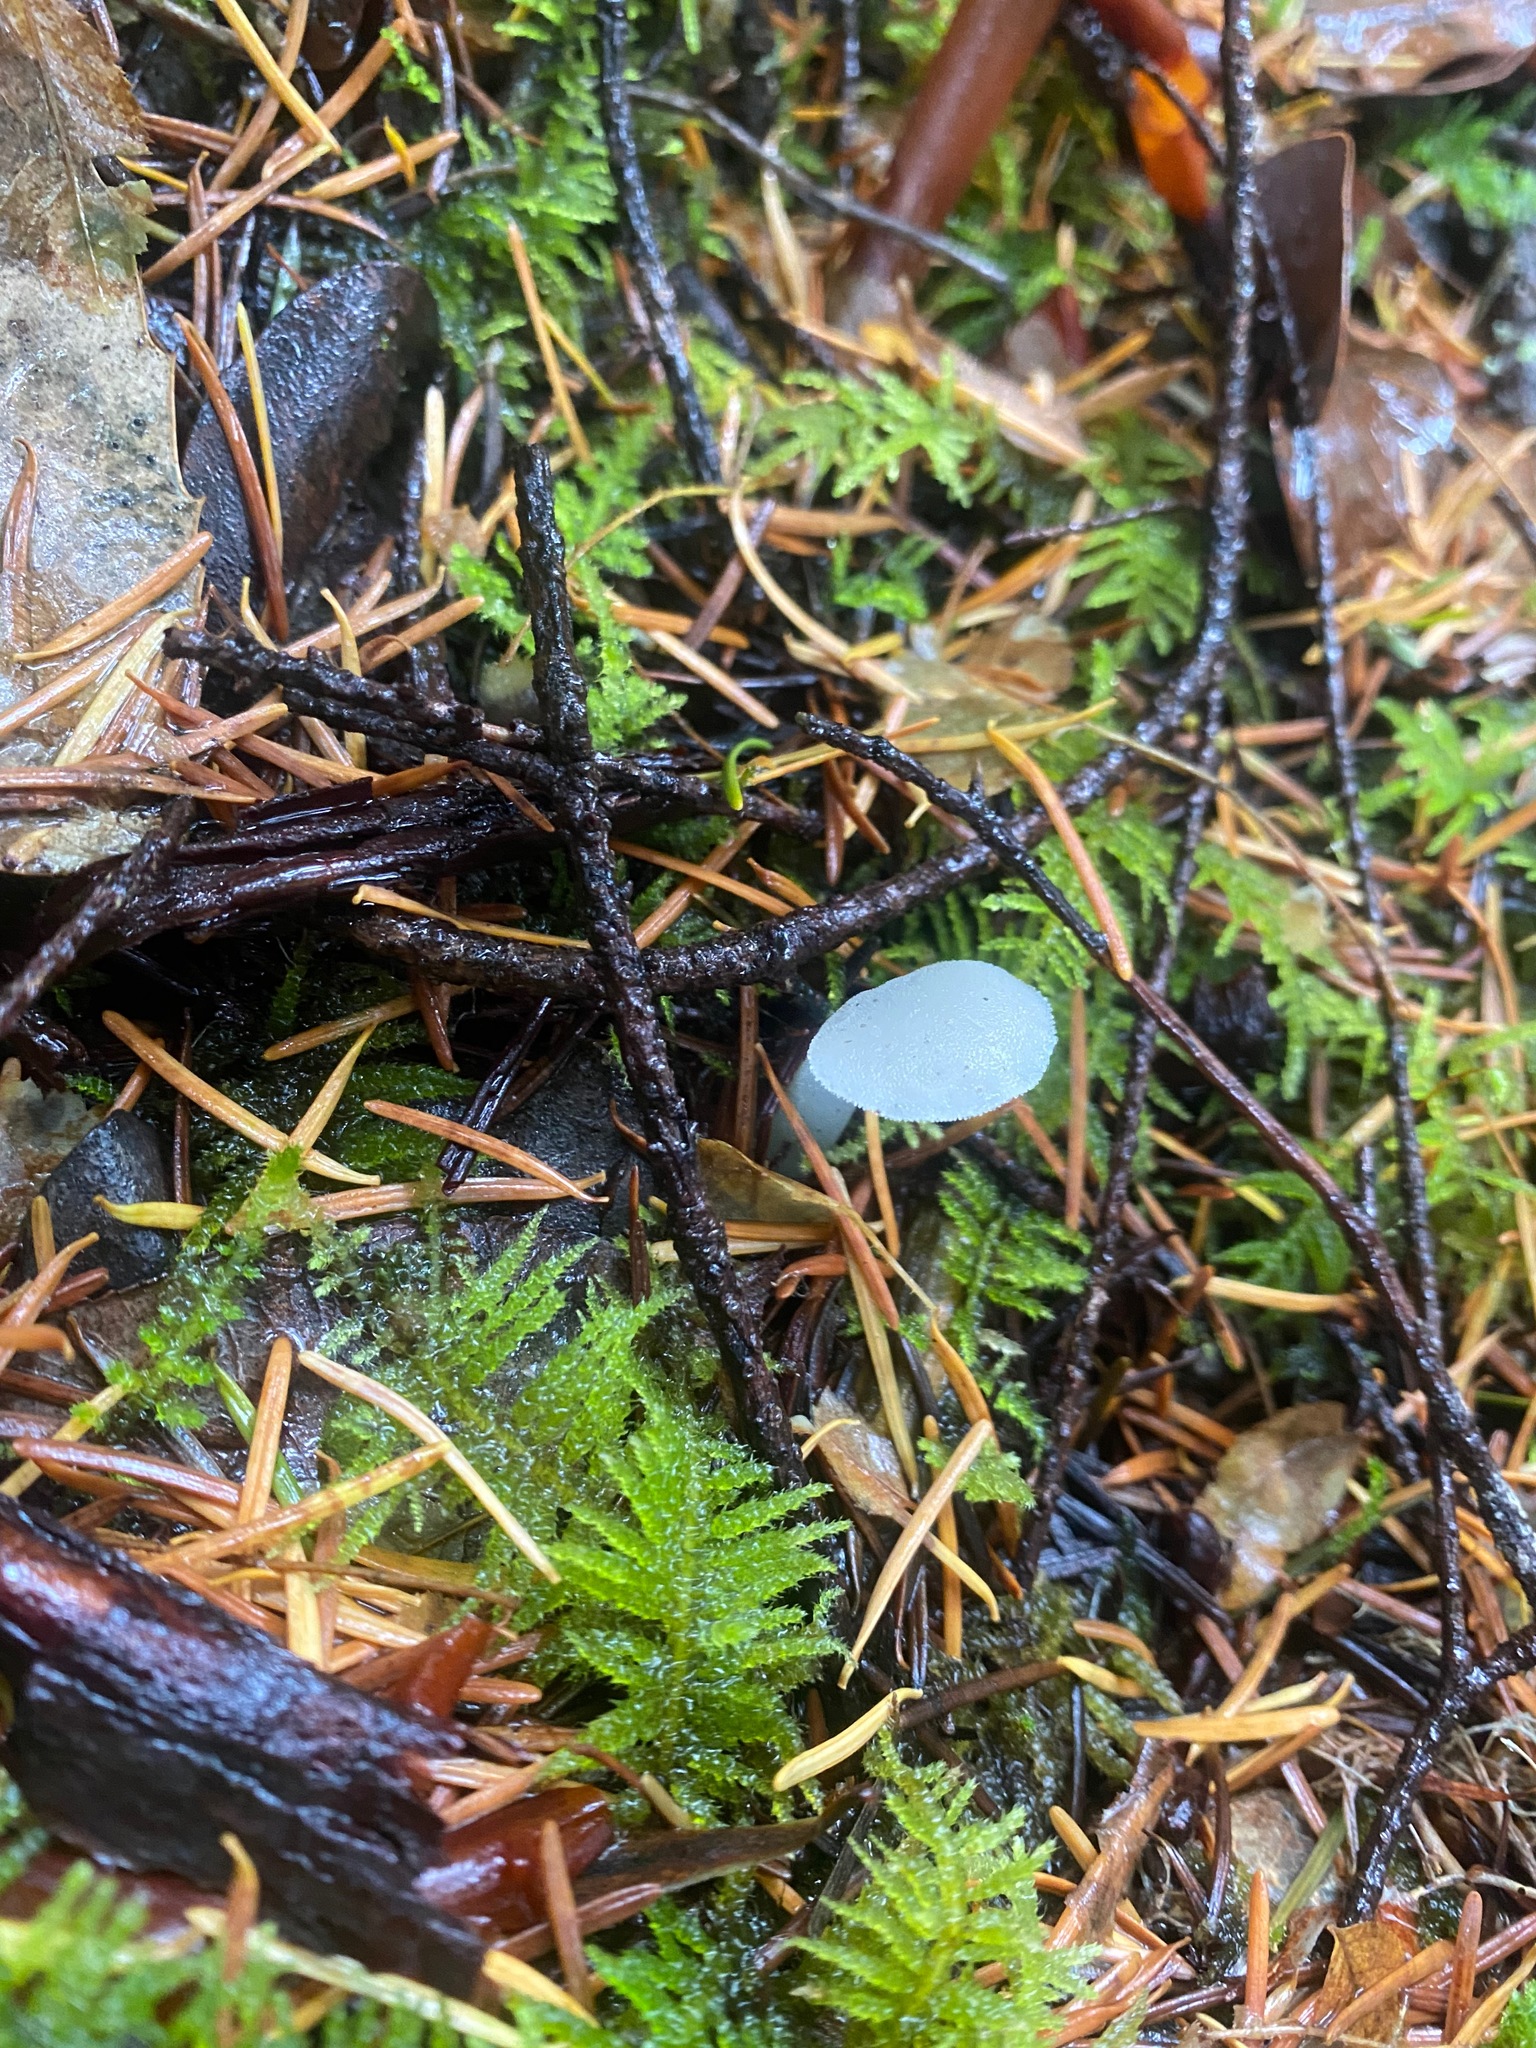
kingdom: Fungi
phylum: Basidiomycota
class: Agaricomycetes
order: Auriculariales
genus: Pseudohydnum
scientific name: Pseudohydnum gelatinosum
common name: Jelly tongue
